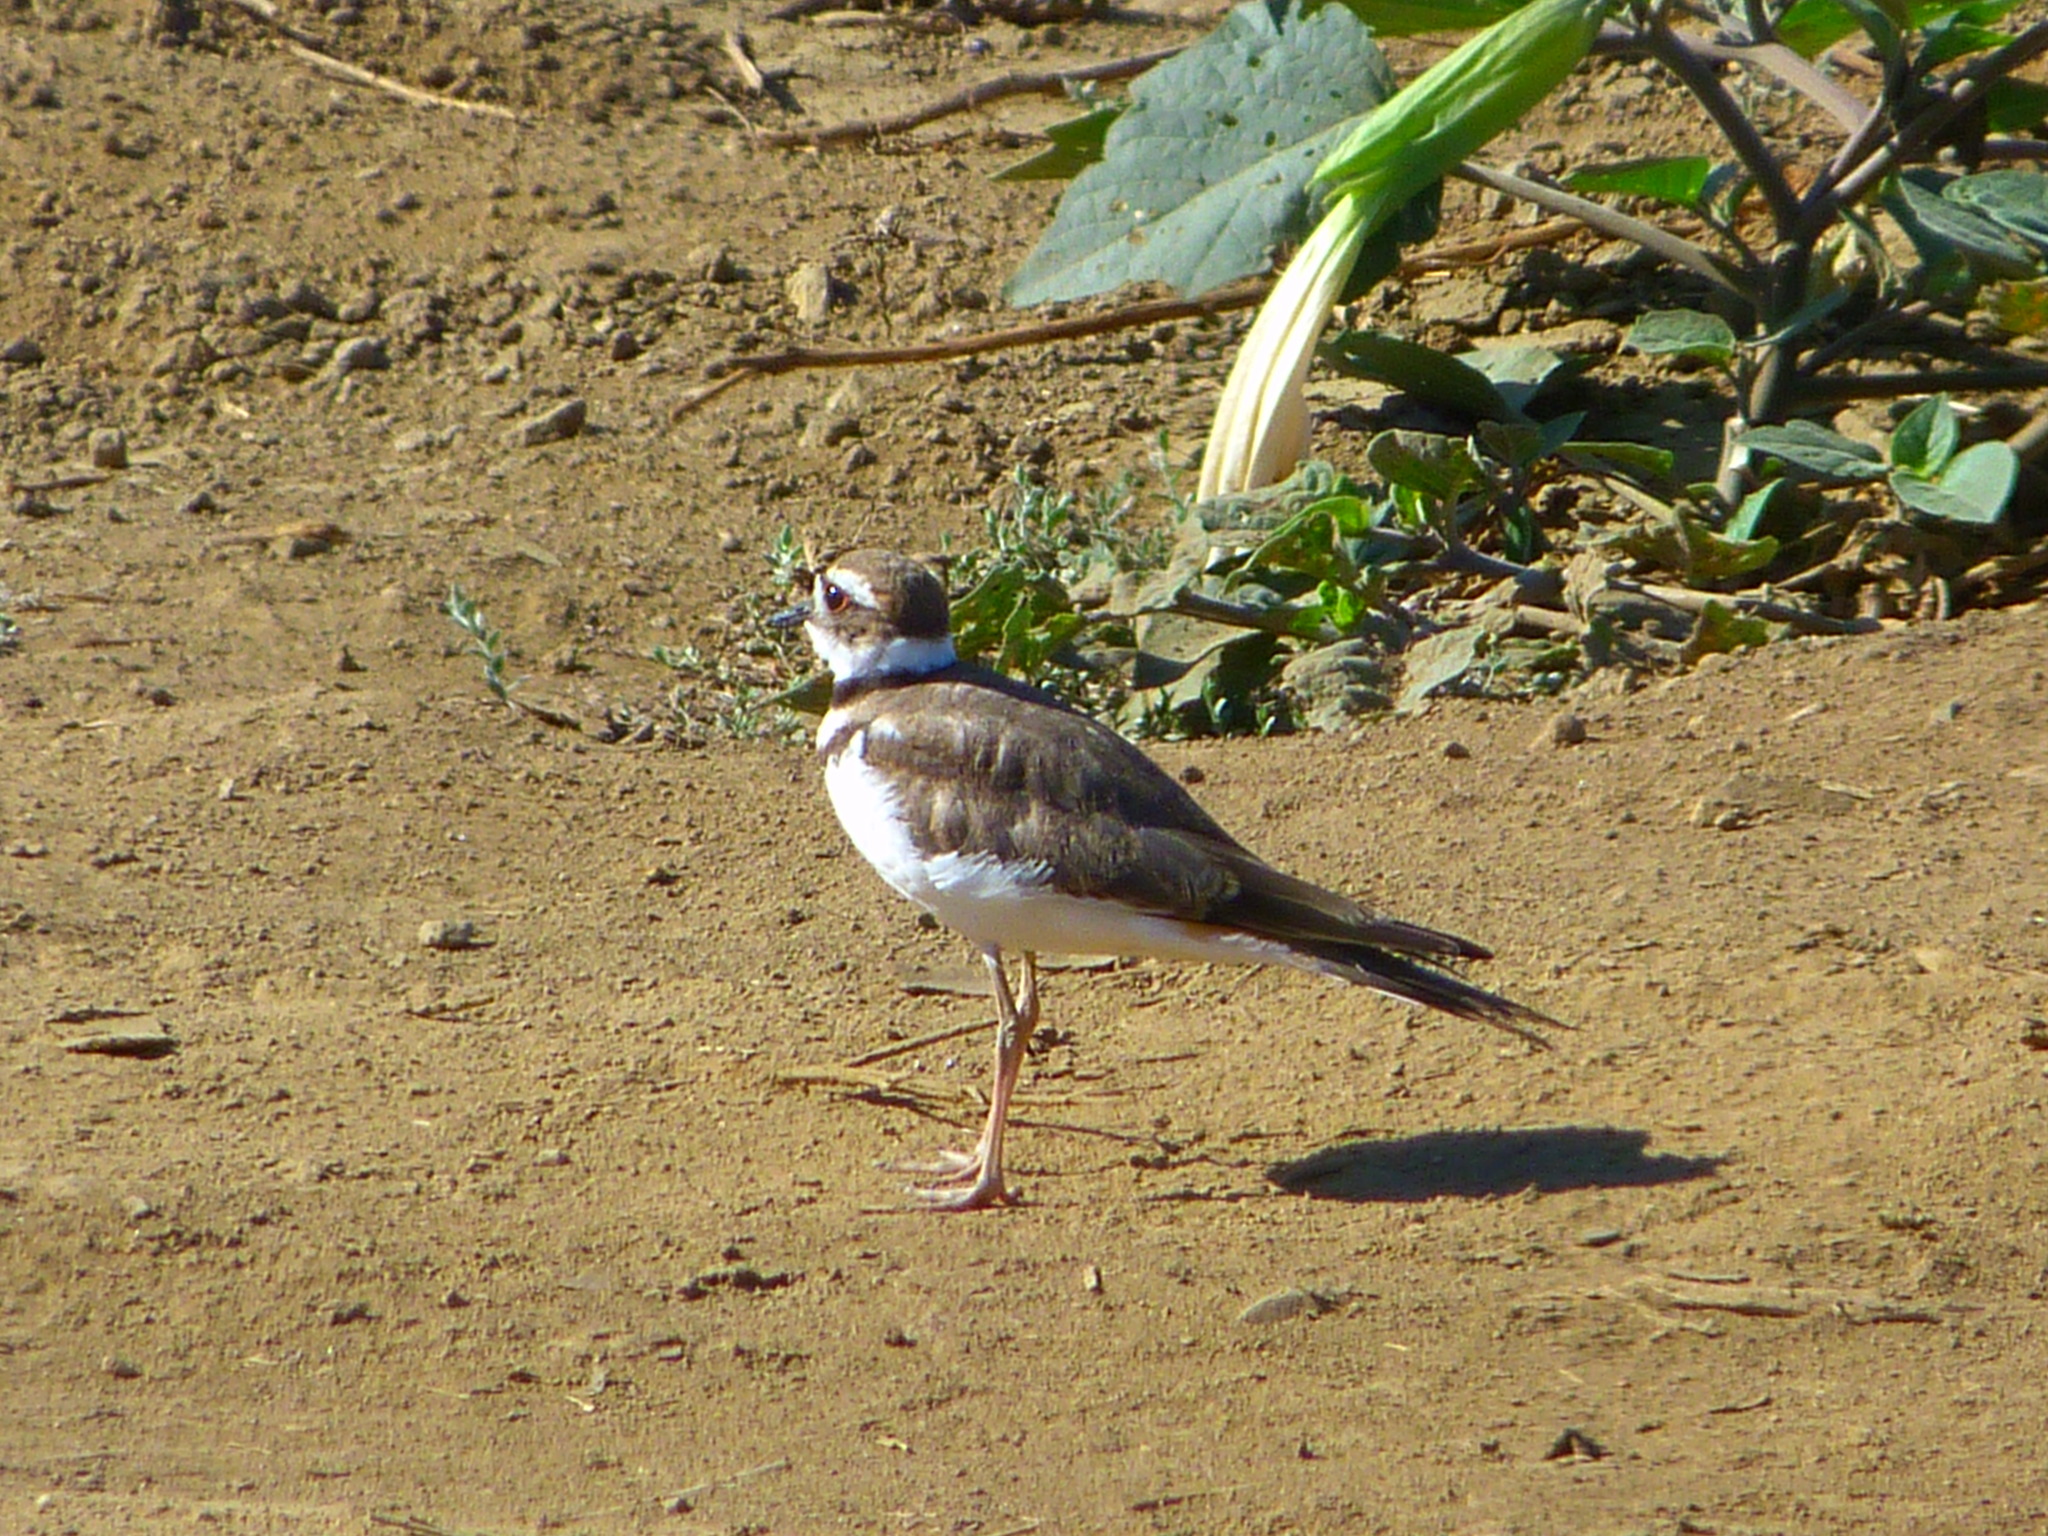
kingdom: Animalia
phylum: Chordata
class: Aves
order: Charadriiformes
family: Charadriidae
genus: Charadrius
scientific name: Charadrius vociferus
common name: Killdeer
